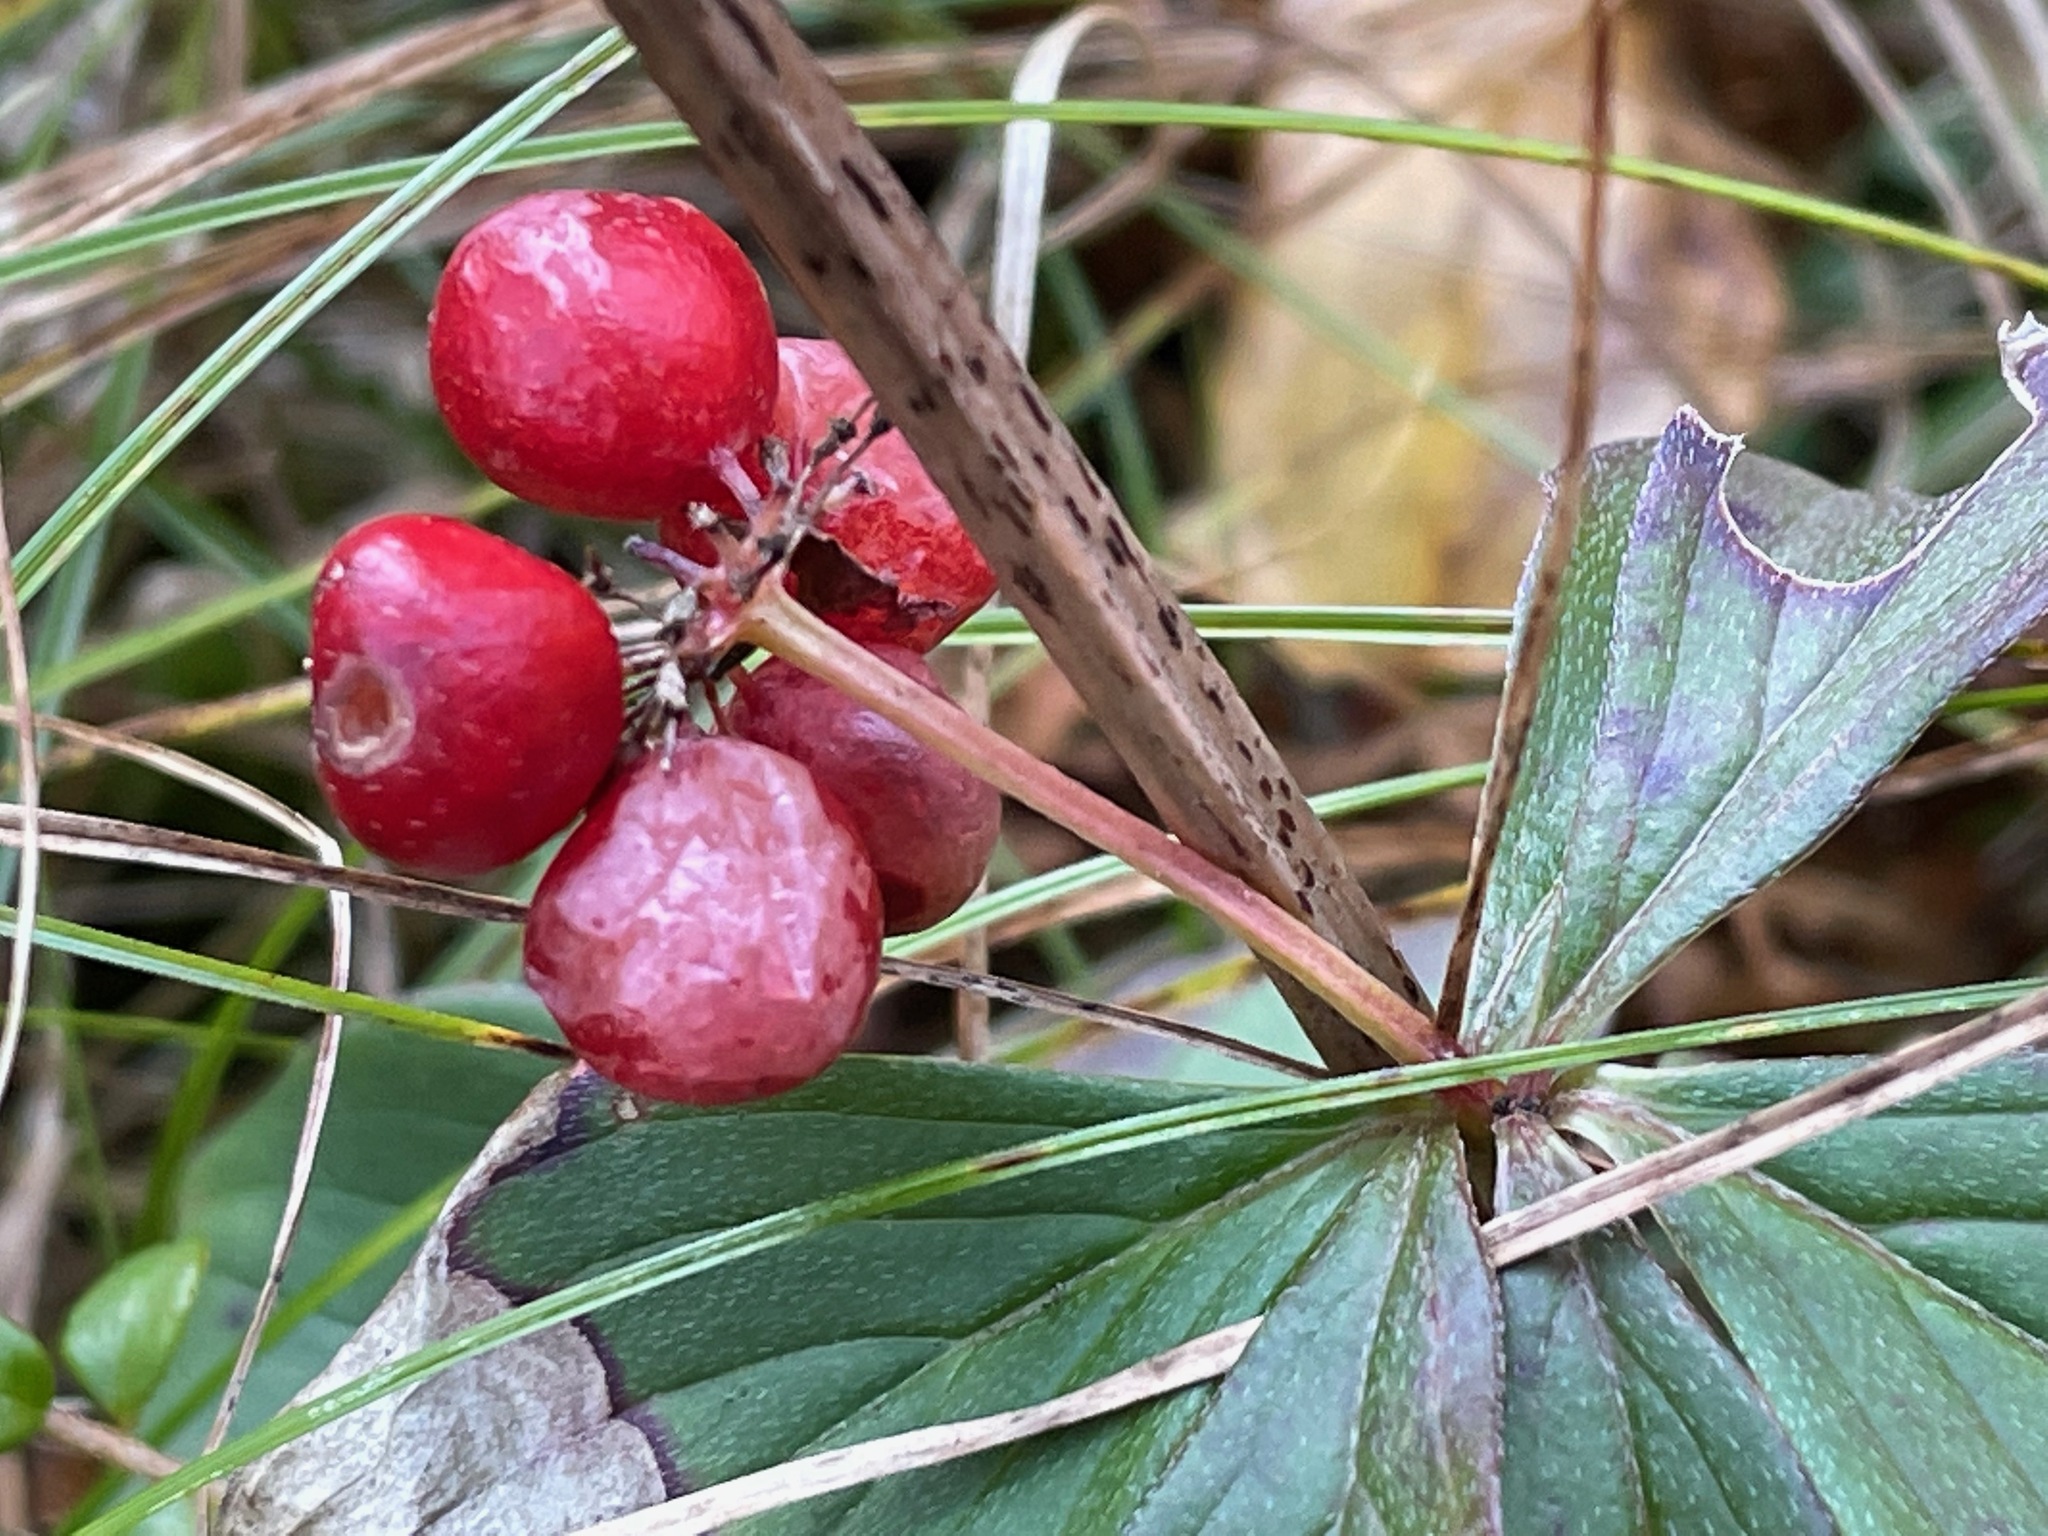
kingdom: Plantae
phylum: Tracheophyta
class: Magnoliopsida
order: Cornales
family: Cornaceae
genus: Cornus
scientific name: Cornus canadensis
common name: Creeping dogwood
